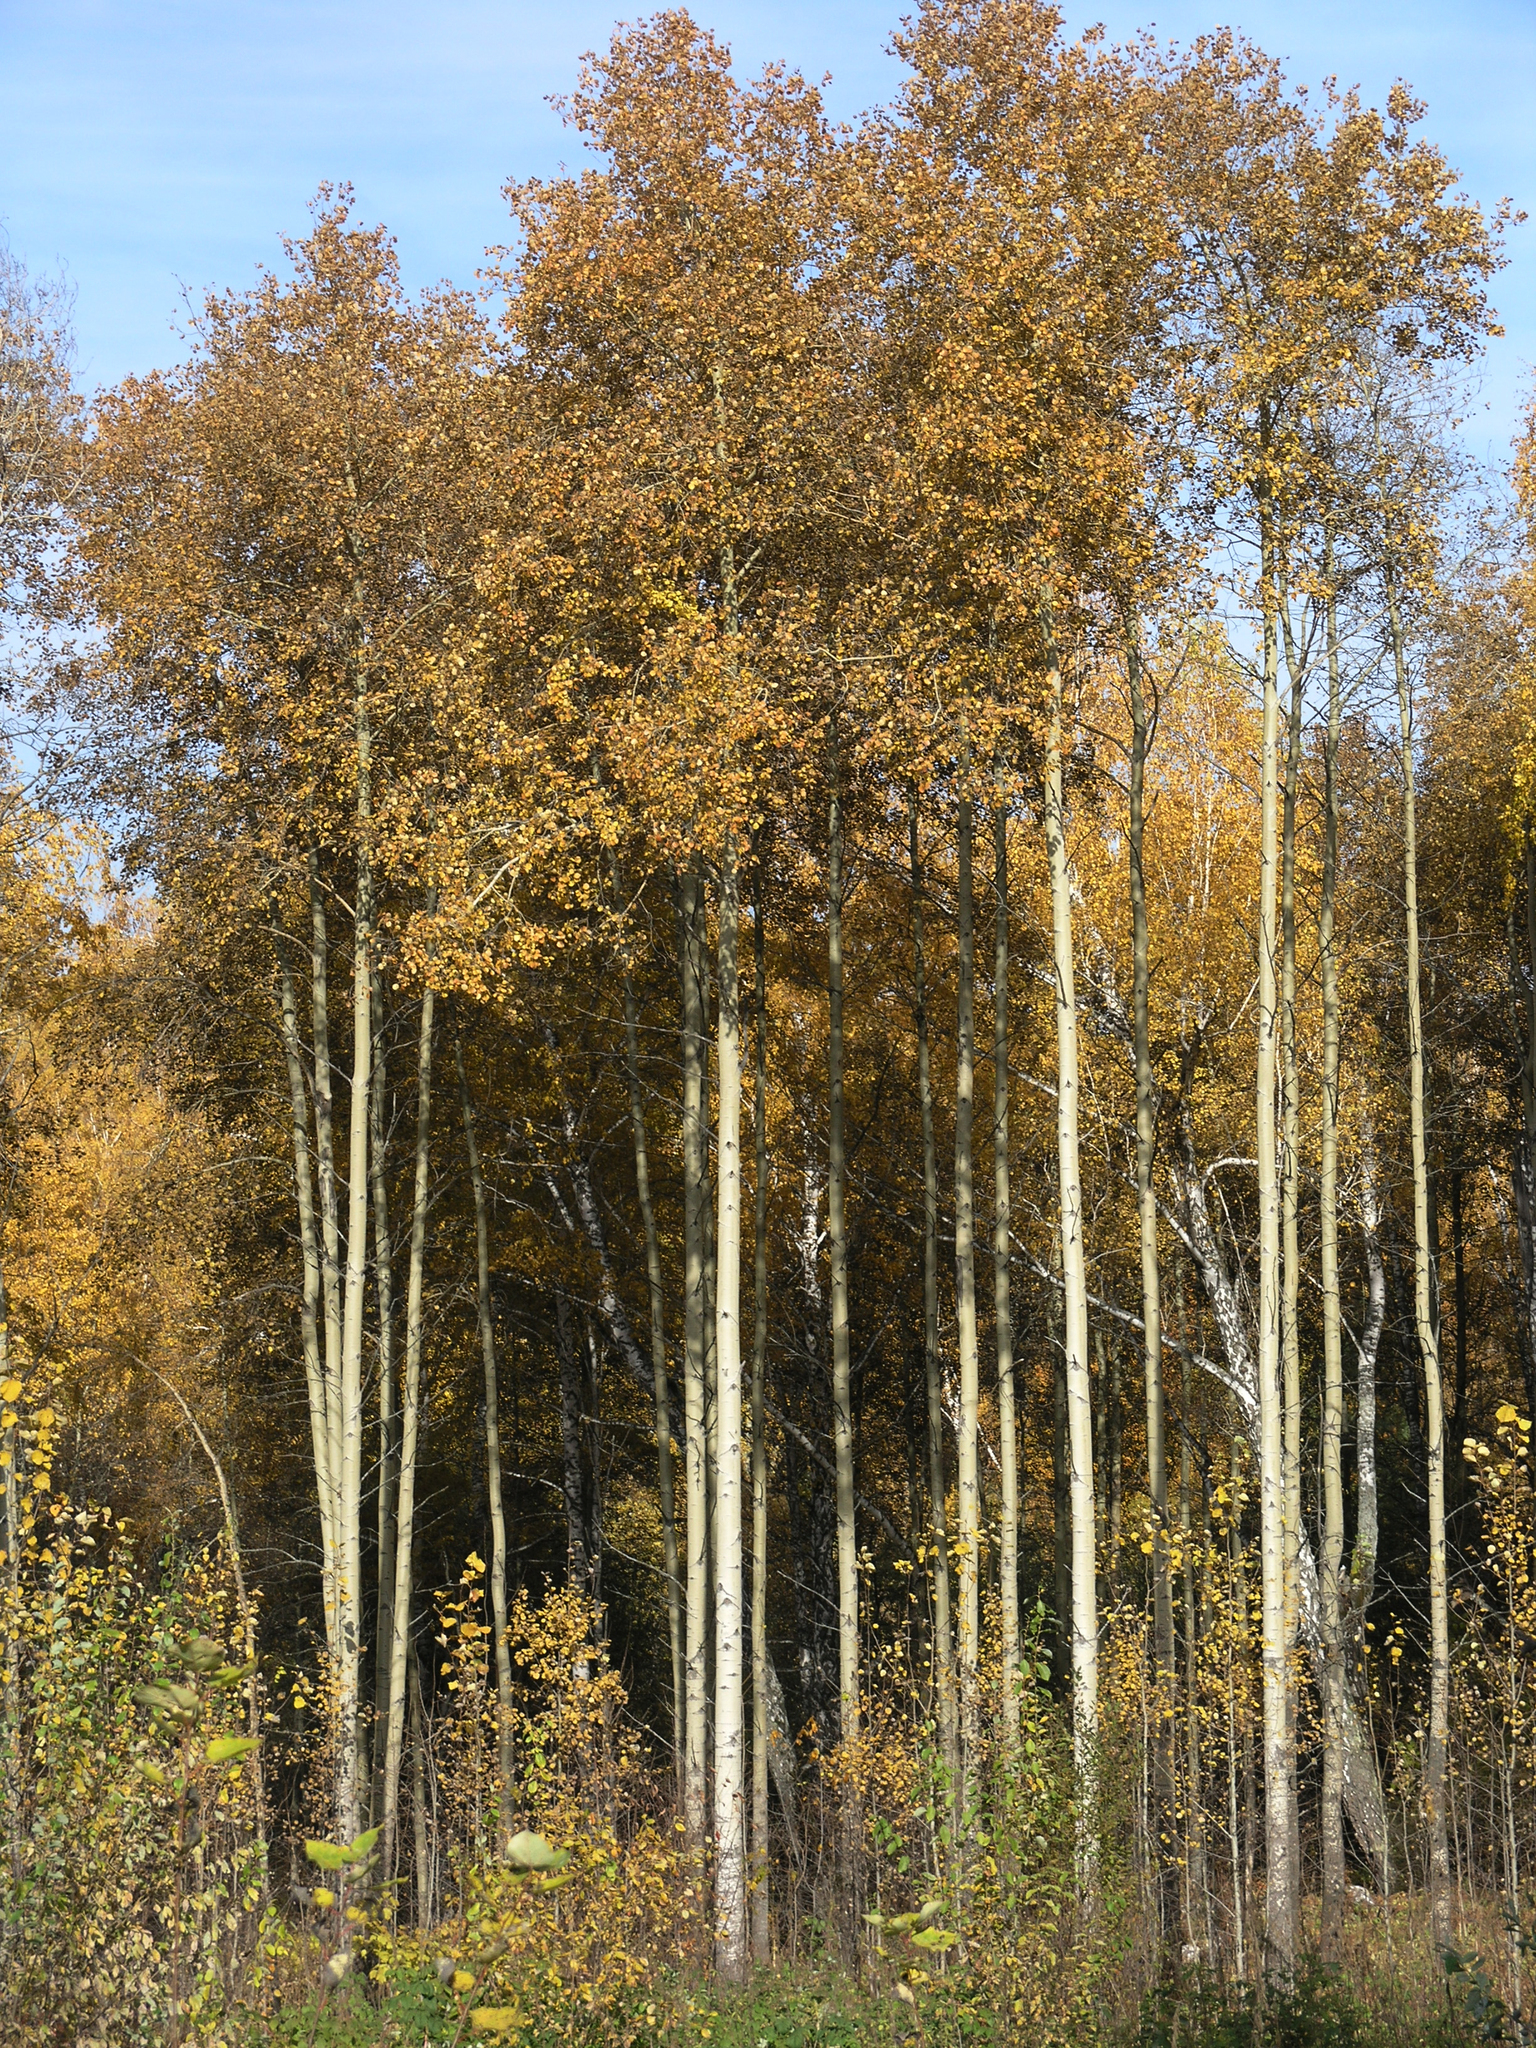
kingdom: Plantae
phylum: Tracheophyta
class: Magnoliopsida
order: Malpighiales
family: Salicaceae
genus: Populus
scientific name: Populus tremula
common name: European aspen
